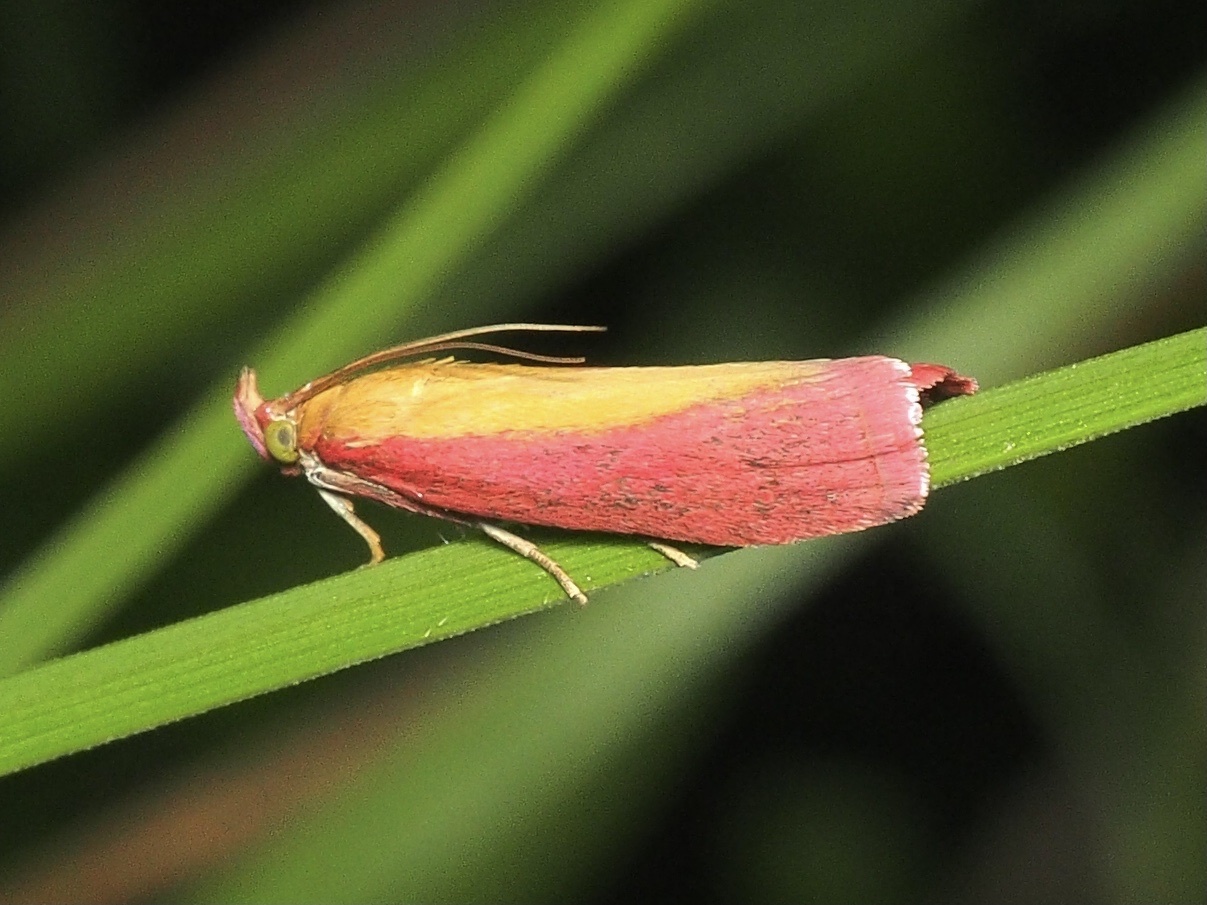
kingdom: Animalia
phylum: Arthropoda
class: Insecta
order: Lepidoptera
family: Pyralidae
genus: Oncocera
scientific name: Oncocera semirubella
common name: Rosy-striped knot-horn
